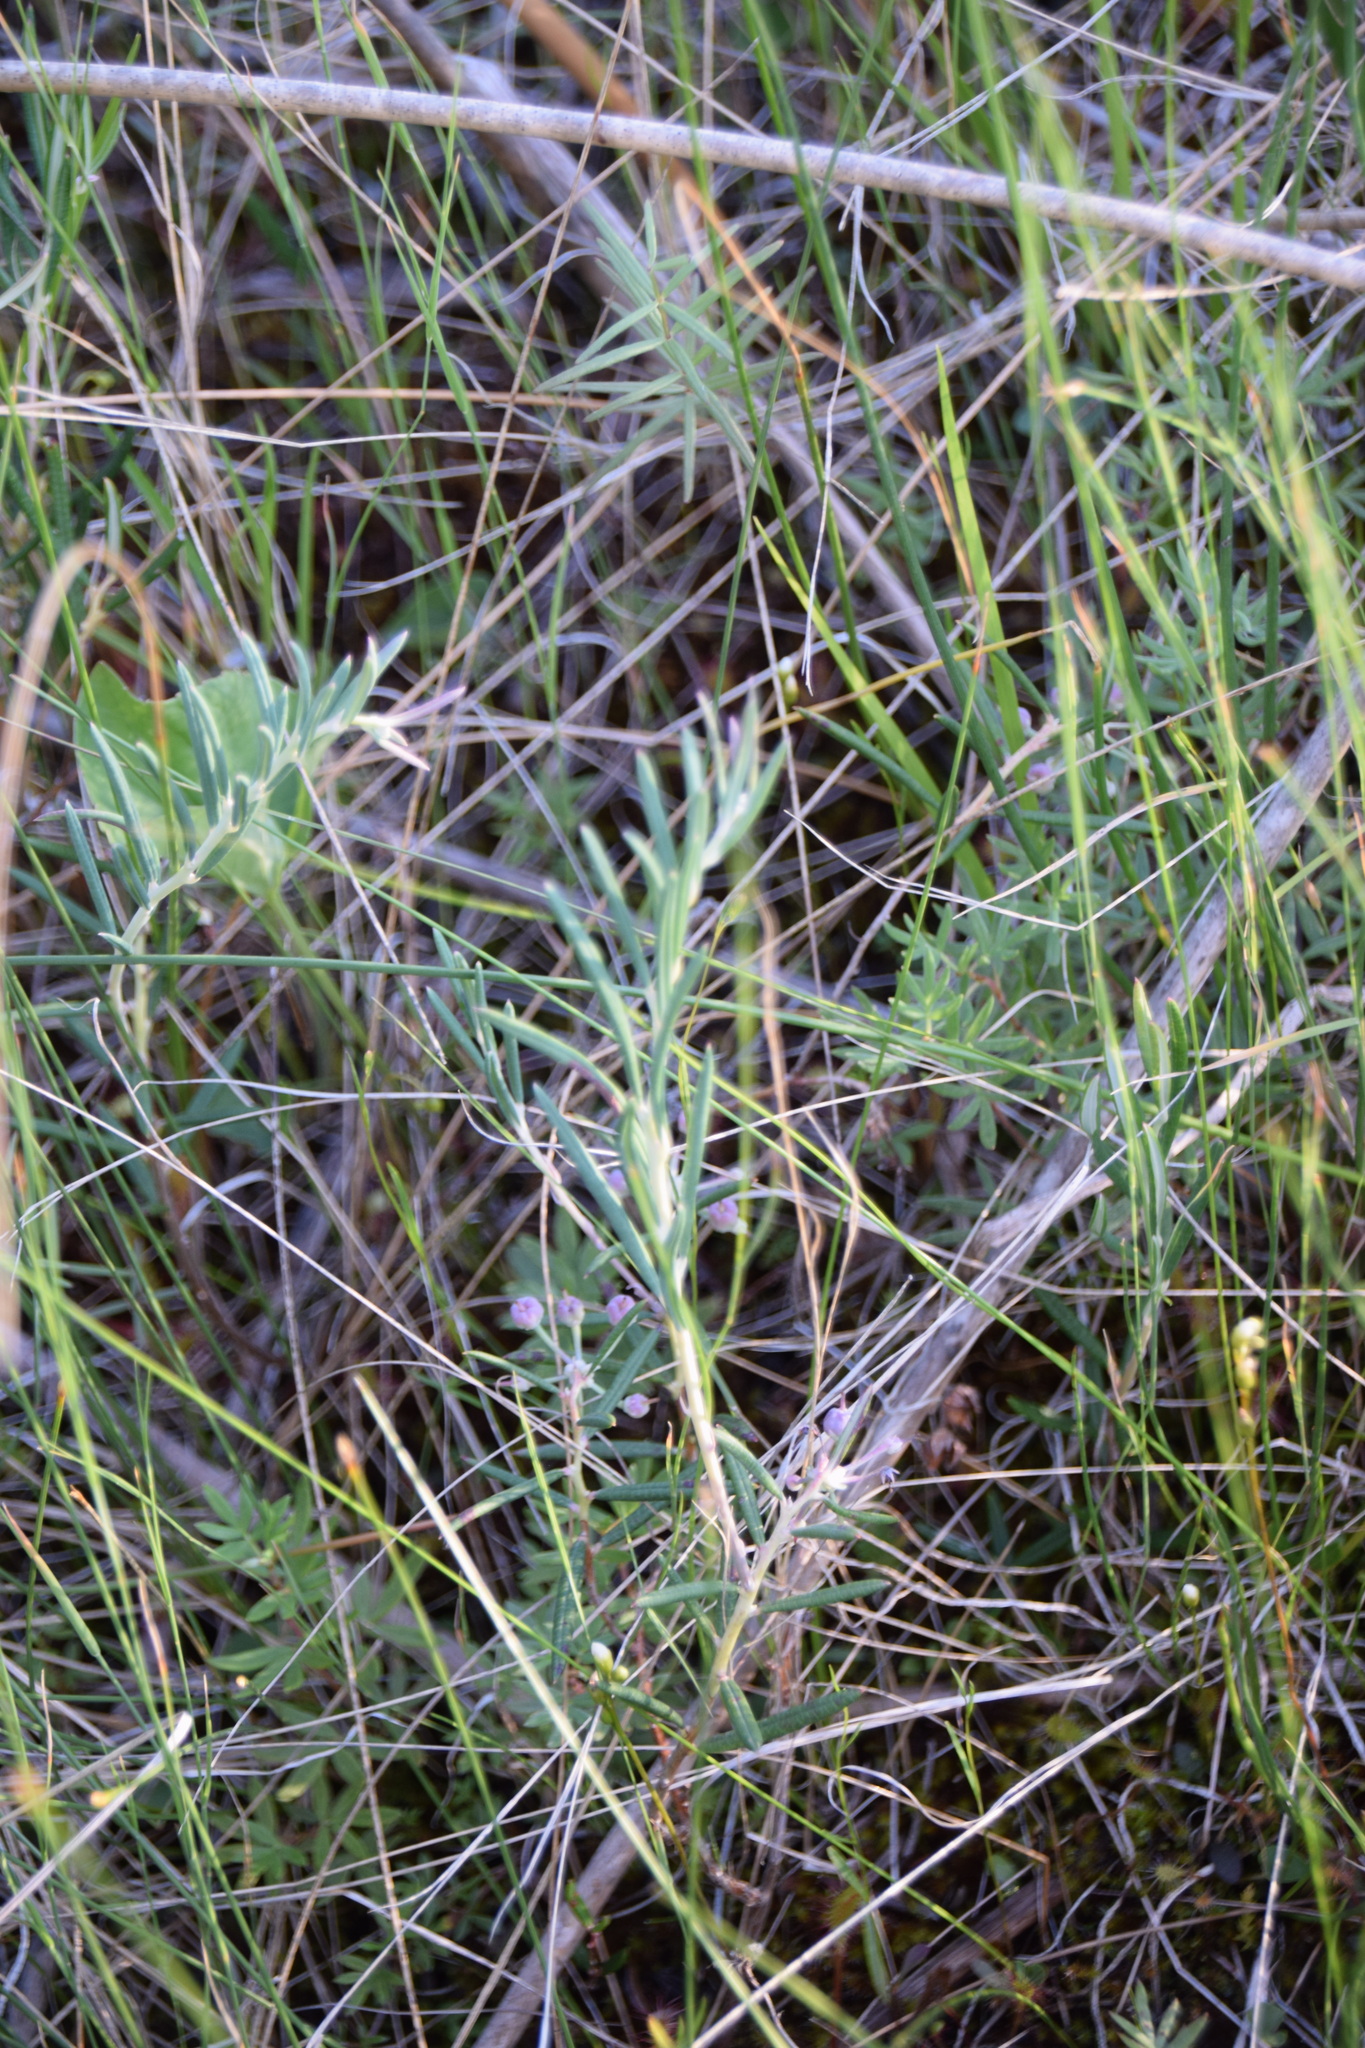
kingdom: Plantae
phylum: Tracheophyta
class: Magnoliopsida
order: Ericales
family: Ericaceae
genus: Andromeda
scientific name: Andromeda polifolia
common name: Bog-rosemary
